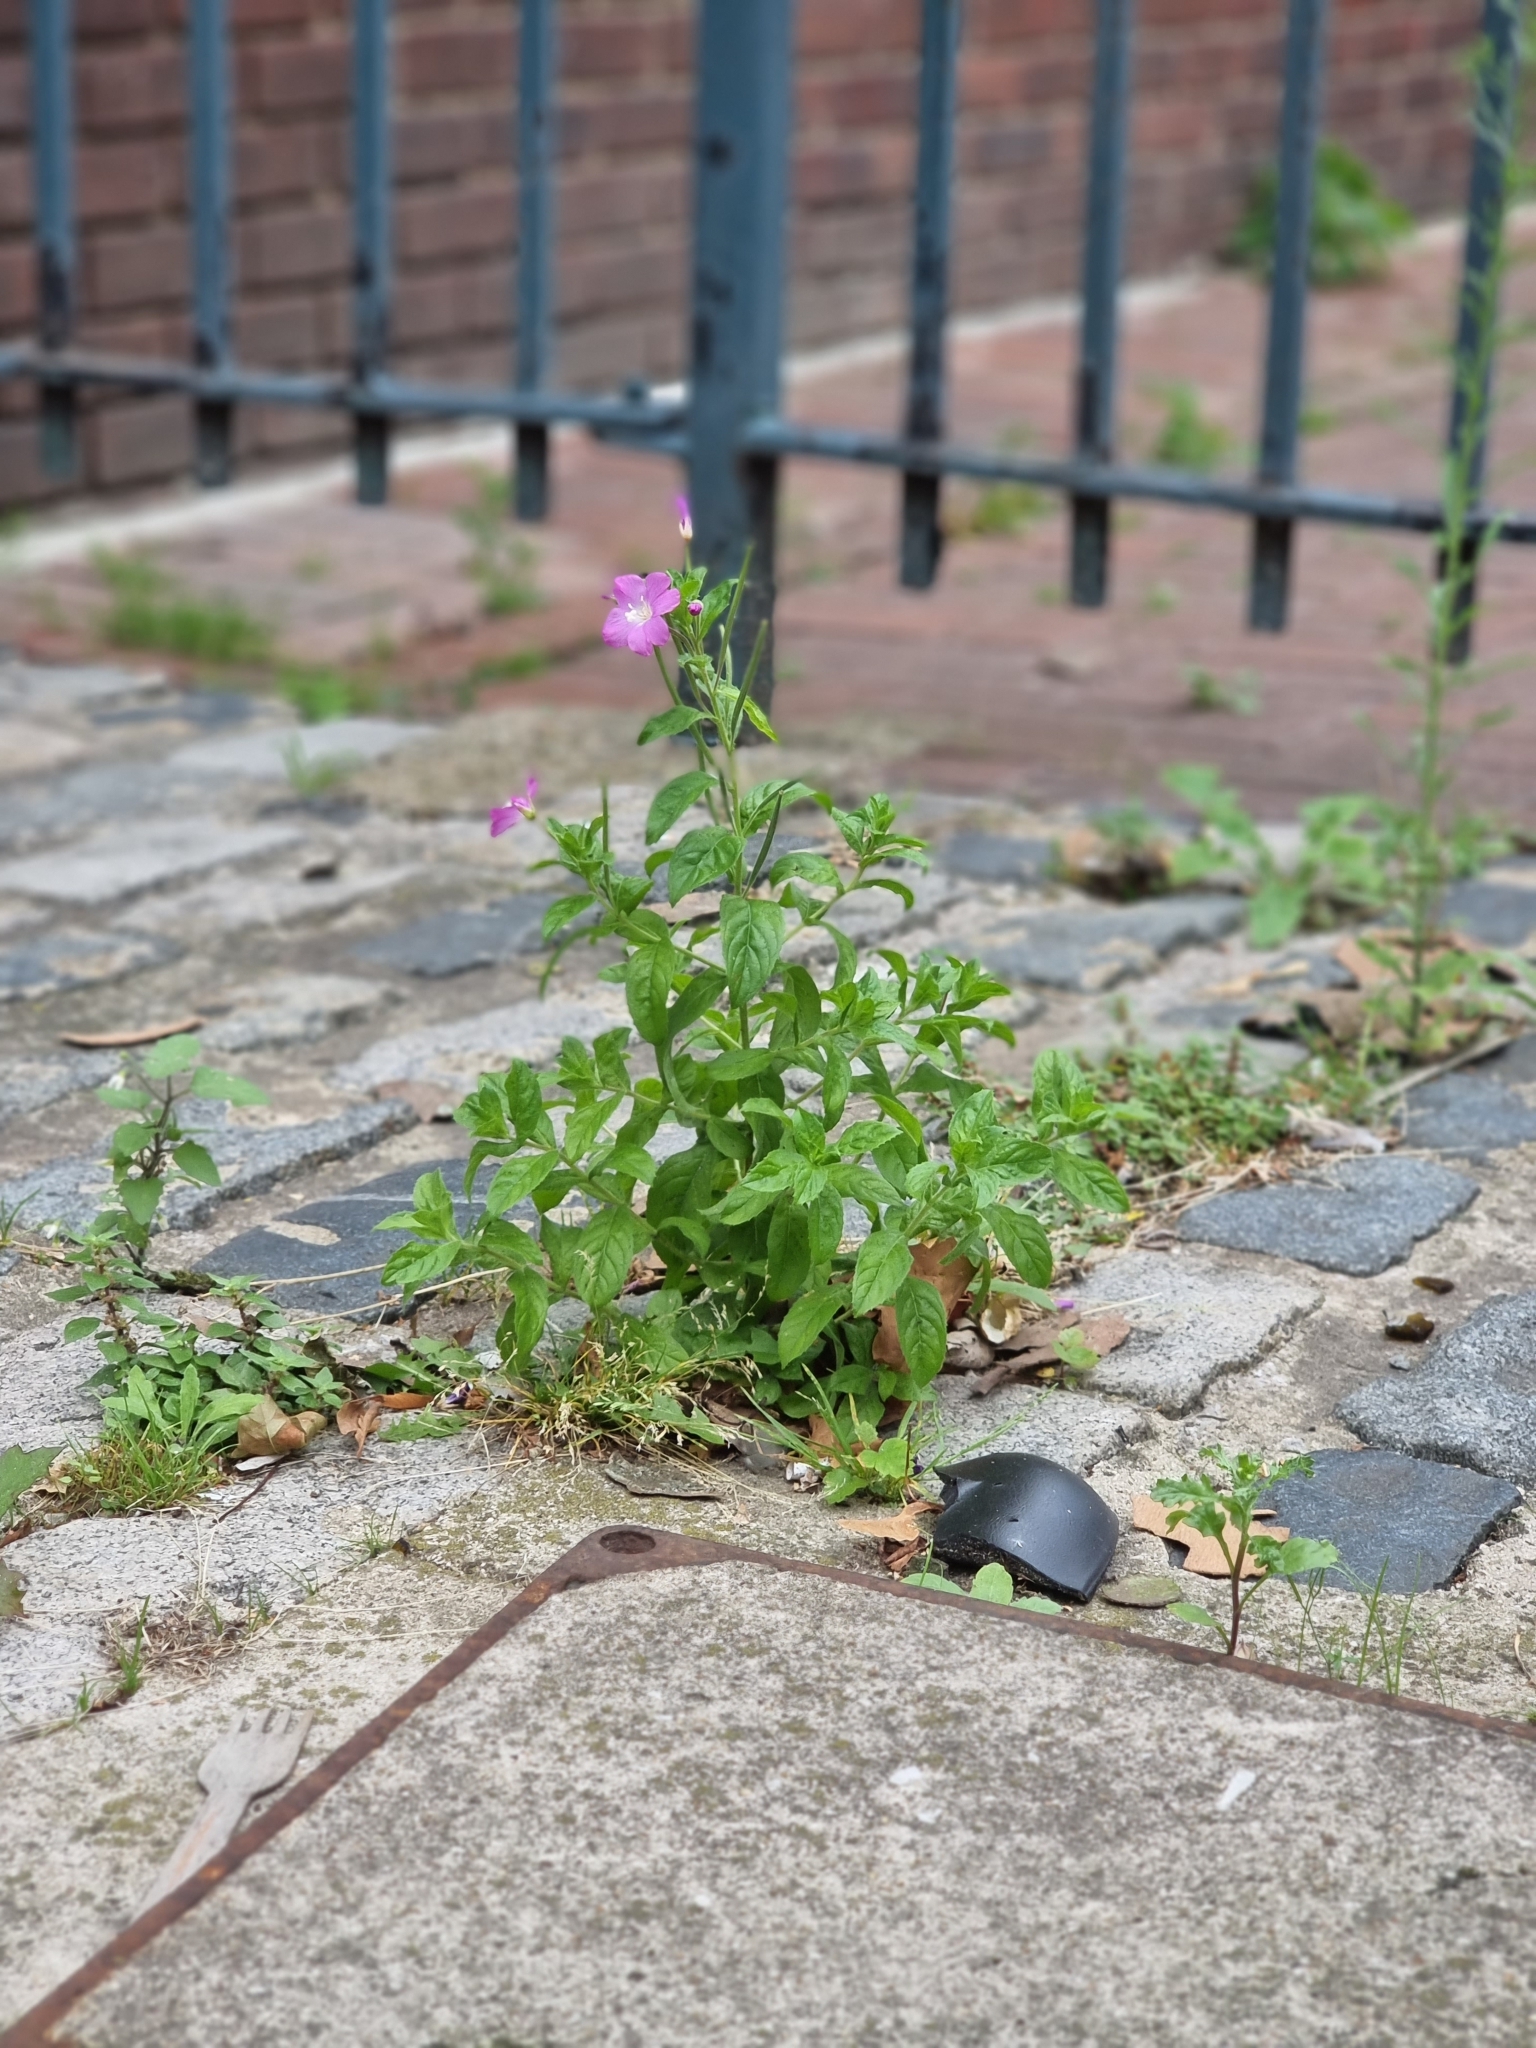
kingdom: Plantae
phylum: Tracheophyta
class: Magnoliopsida
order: Myrtales
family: Onagraceae
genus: Epilobium
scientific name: Epilobium hirsutum
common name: Great willowherb
